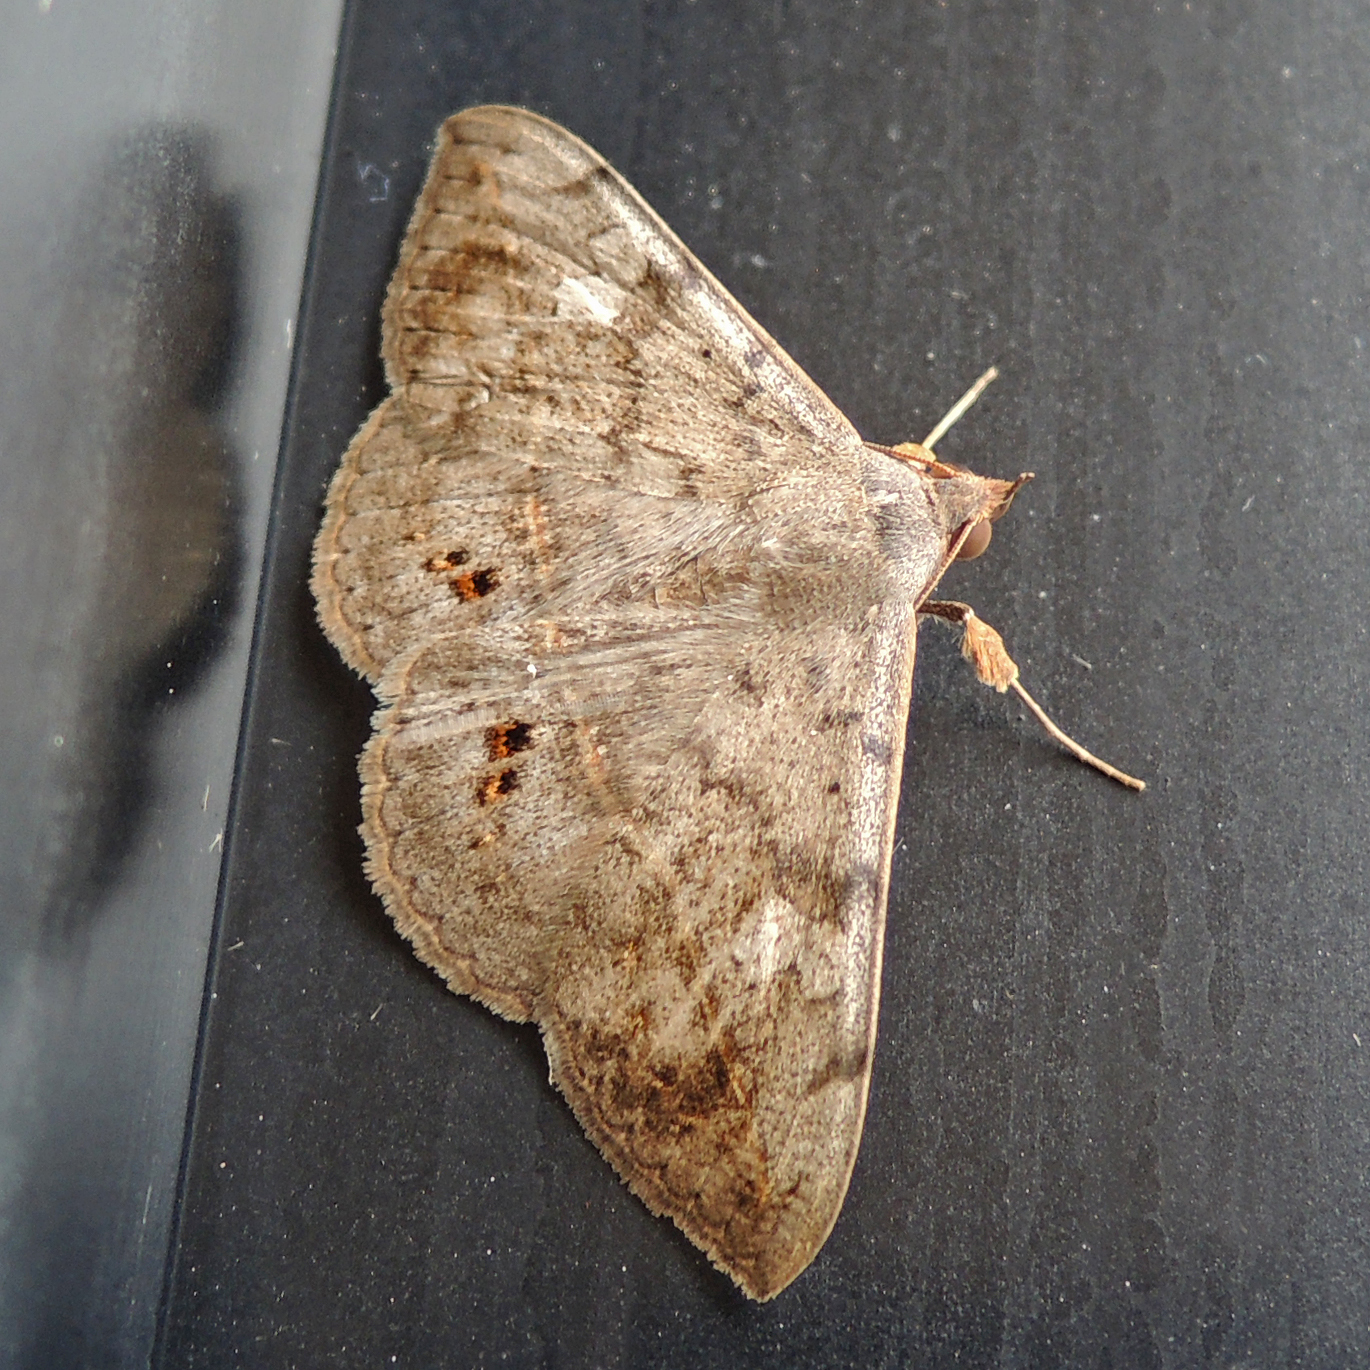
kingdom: Animalia
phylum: Arthropoda
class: Insecta
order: Lepidoptera
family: Erebidae
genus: Anticarsia
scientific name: Anticarsia gemmatalis
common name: Cutworm moth
